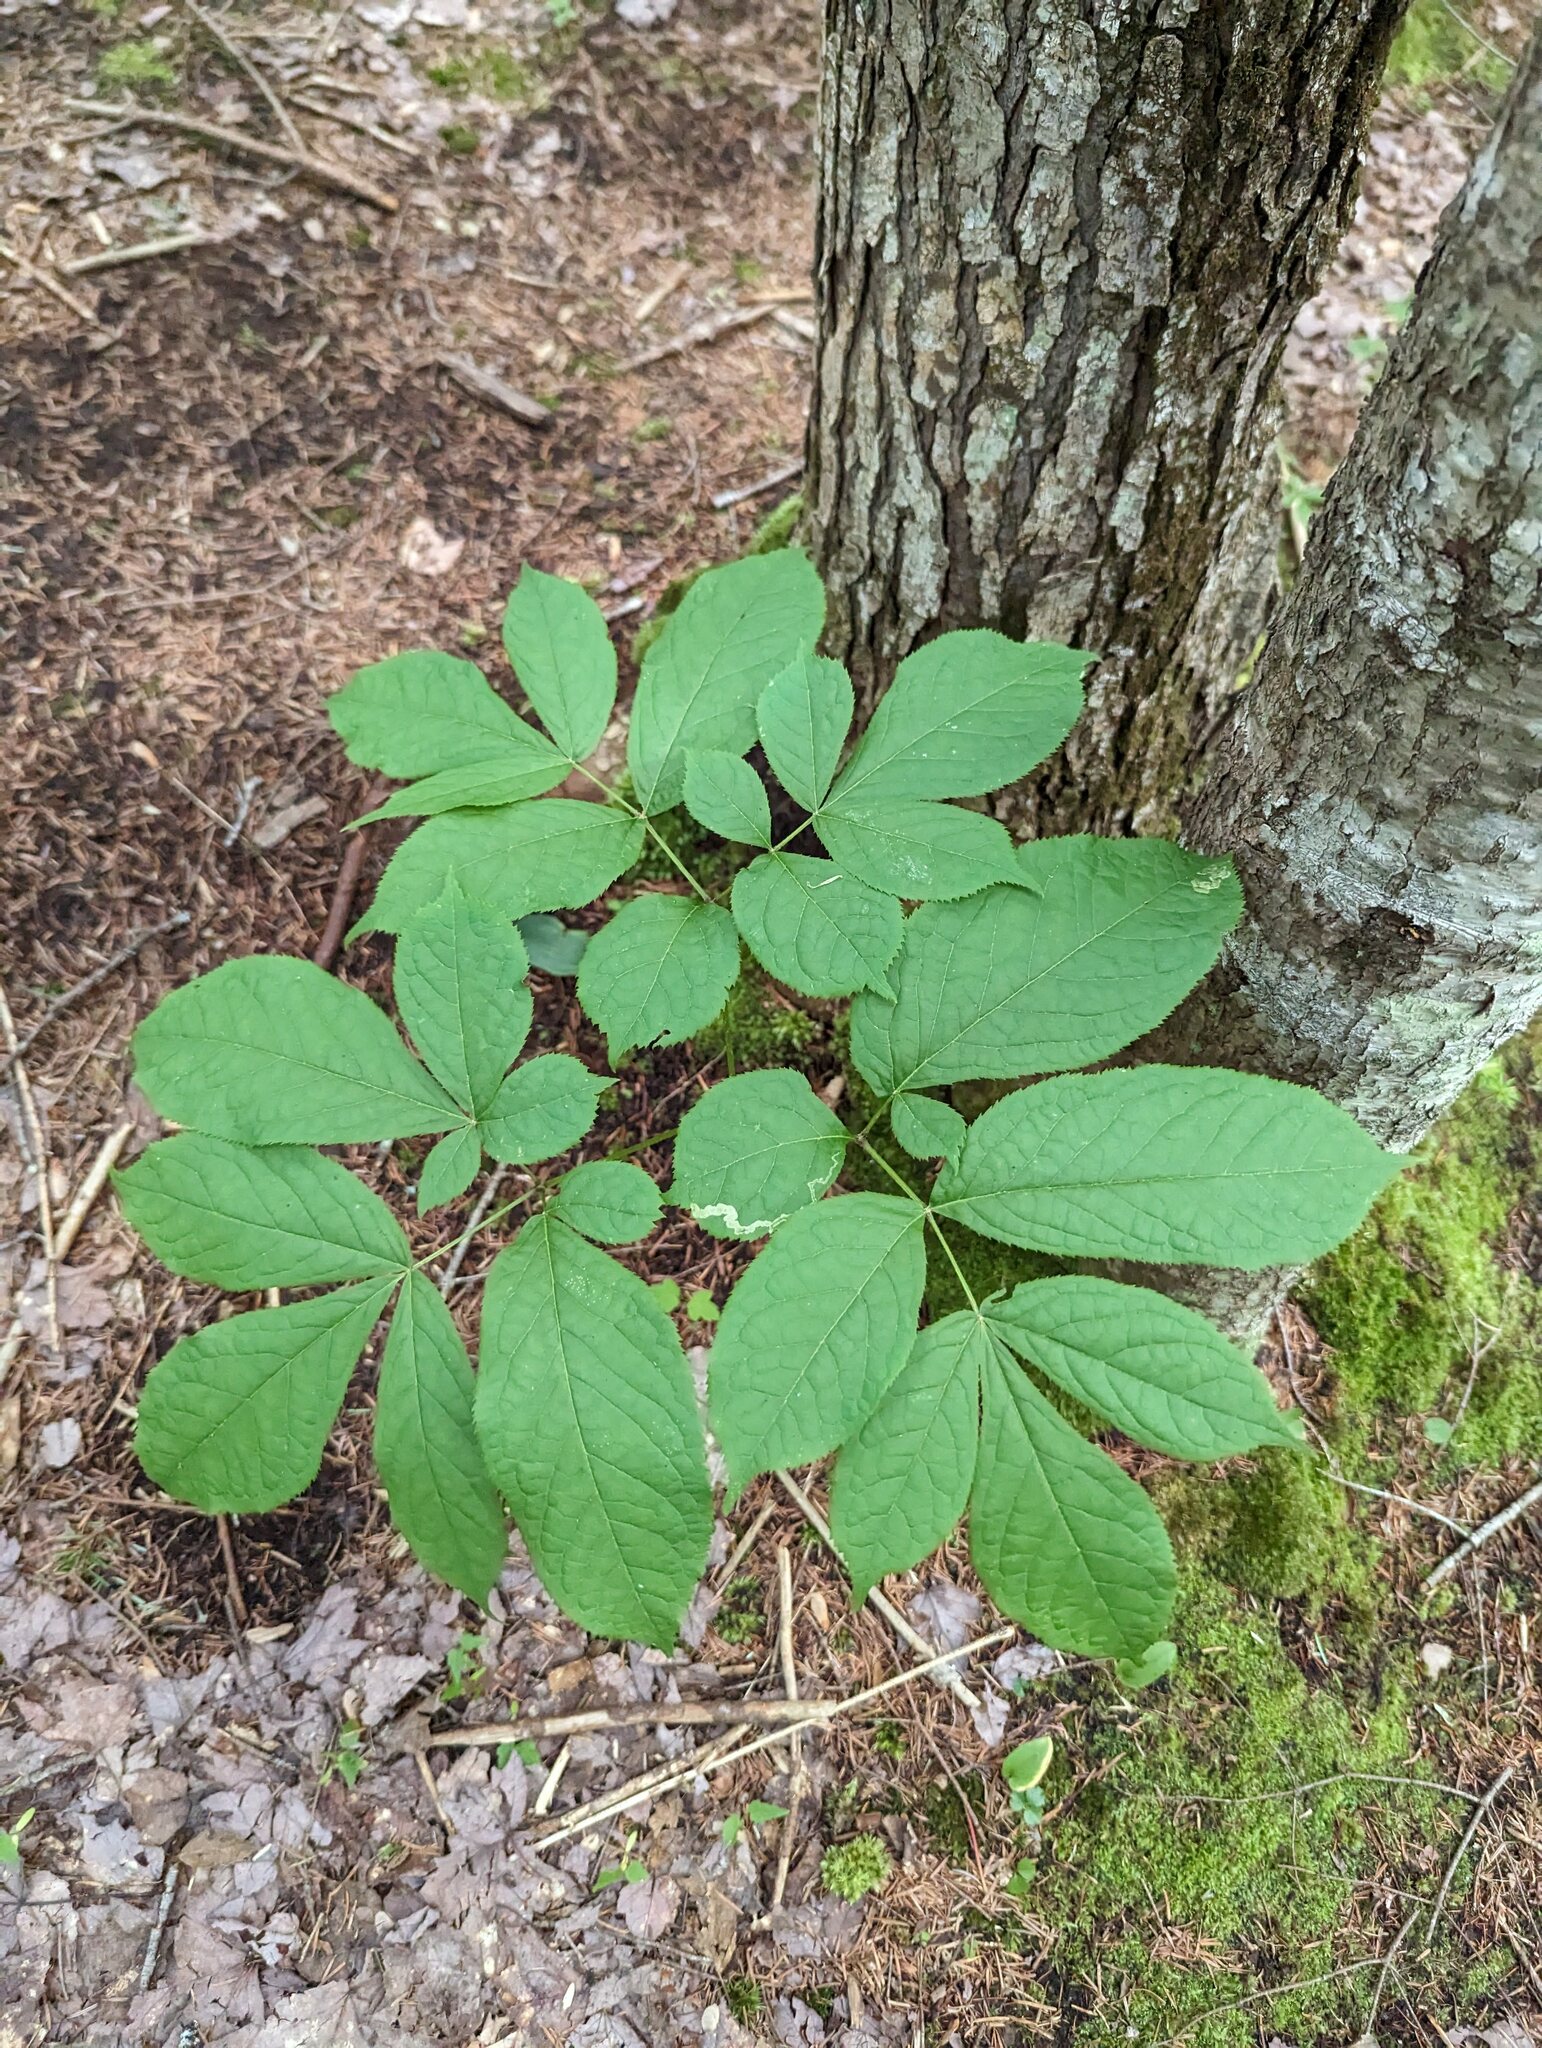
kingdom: Plantae
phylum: Tracheophyta
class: Magnoliopsida
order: Apiales
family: Araliaceae
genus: Aralia
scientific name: Aralia nudicaulis
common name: Wild sarsaparilla
